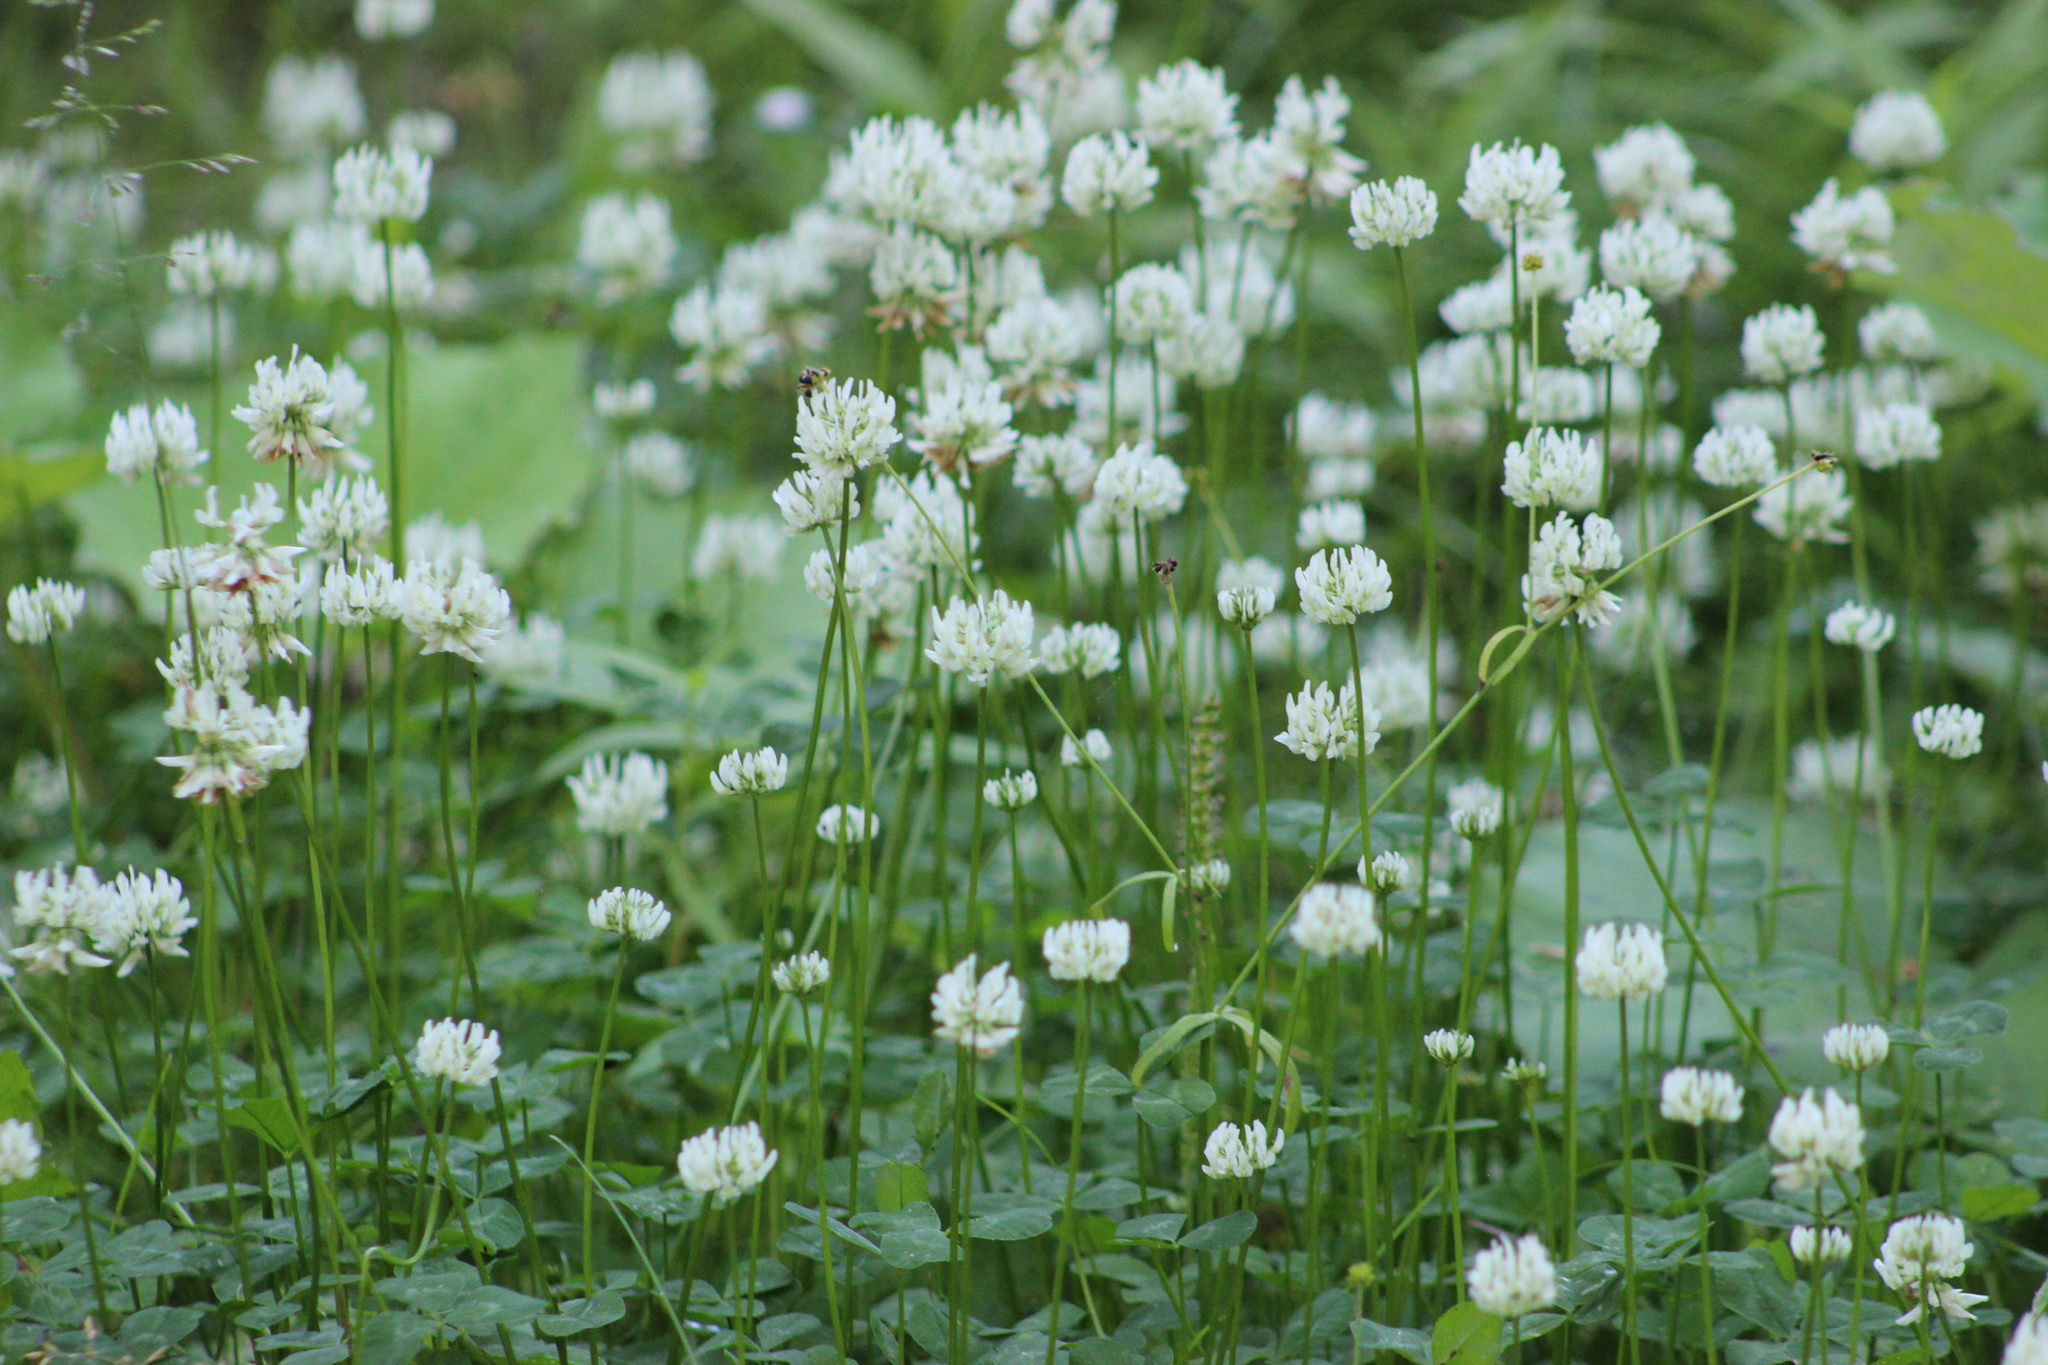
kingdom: Plantae
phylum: Tracheophyta
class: Magnoliopsida
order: Fabales
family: Fabaceae
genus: Trifolium
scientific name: Trifolium repens
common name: White clover
